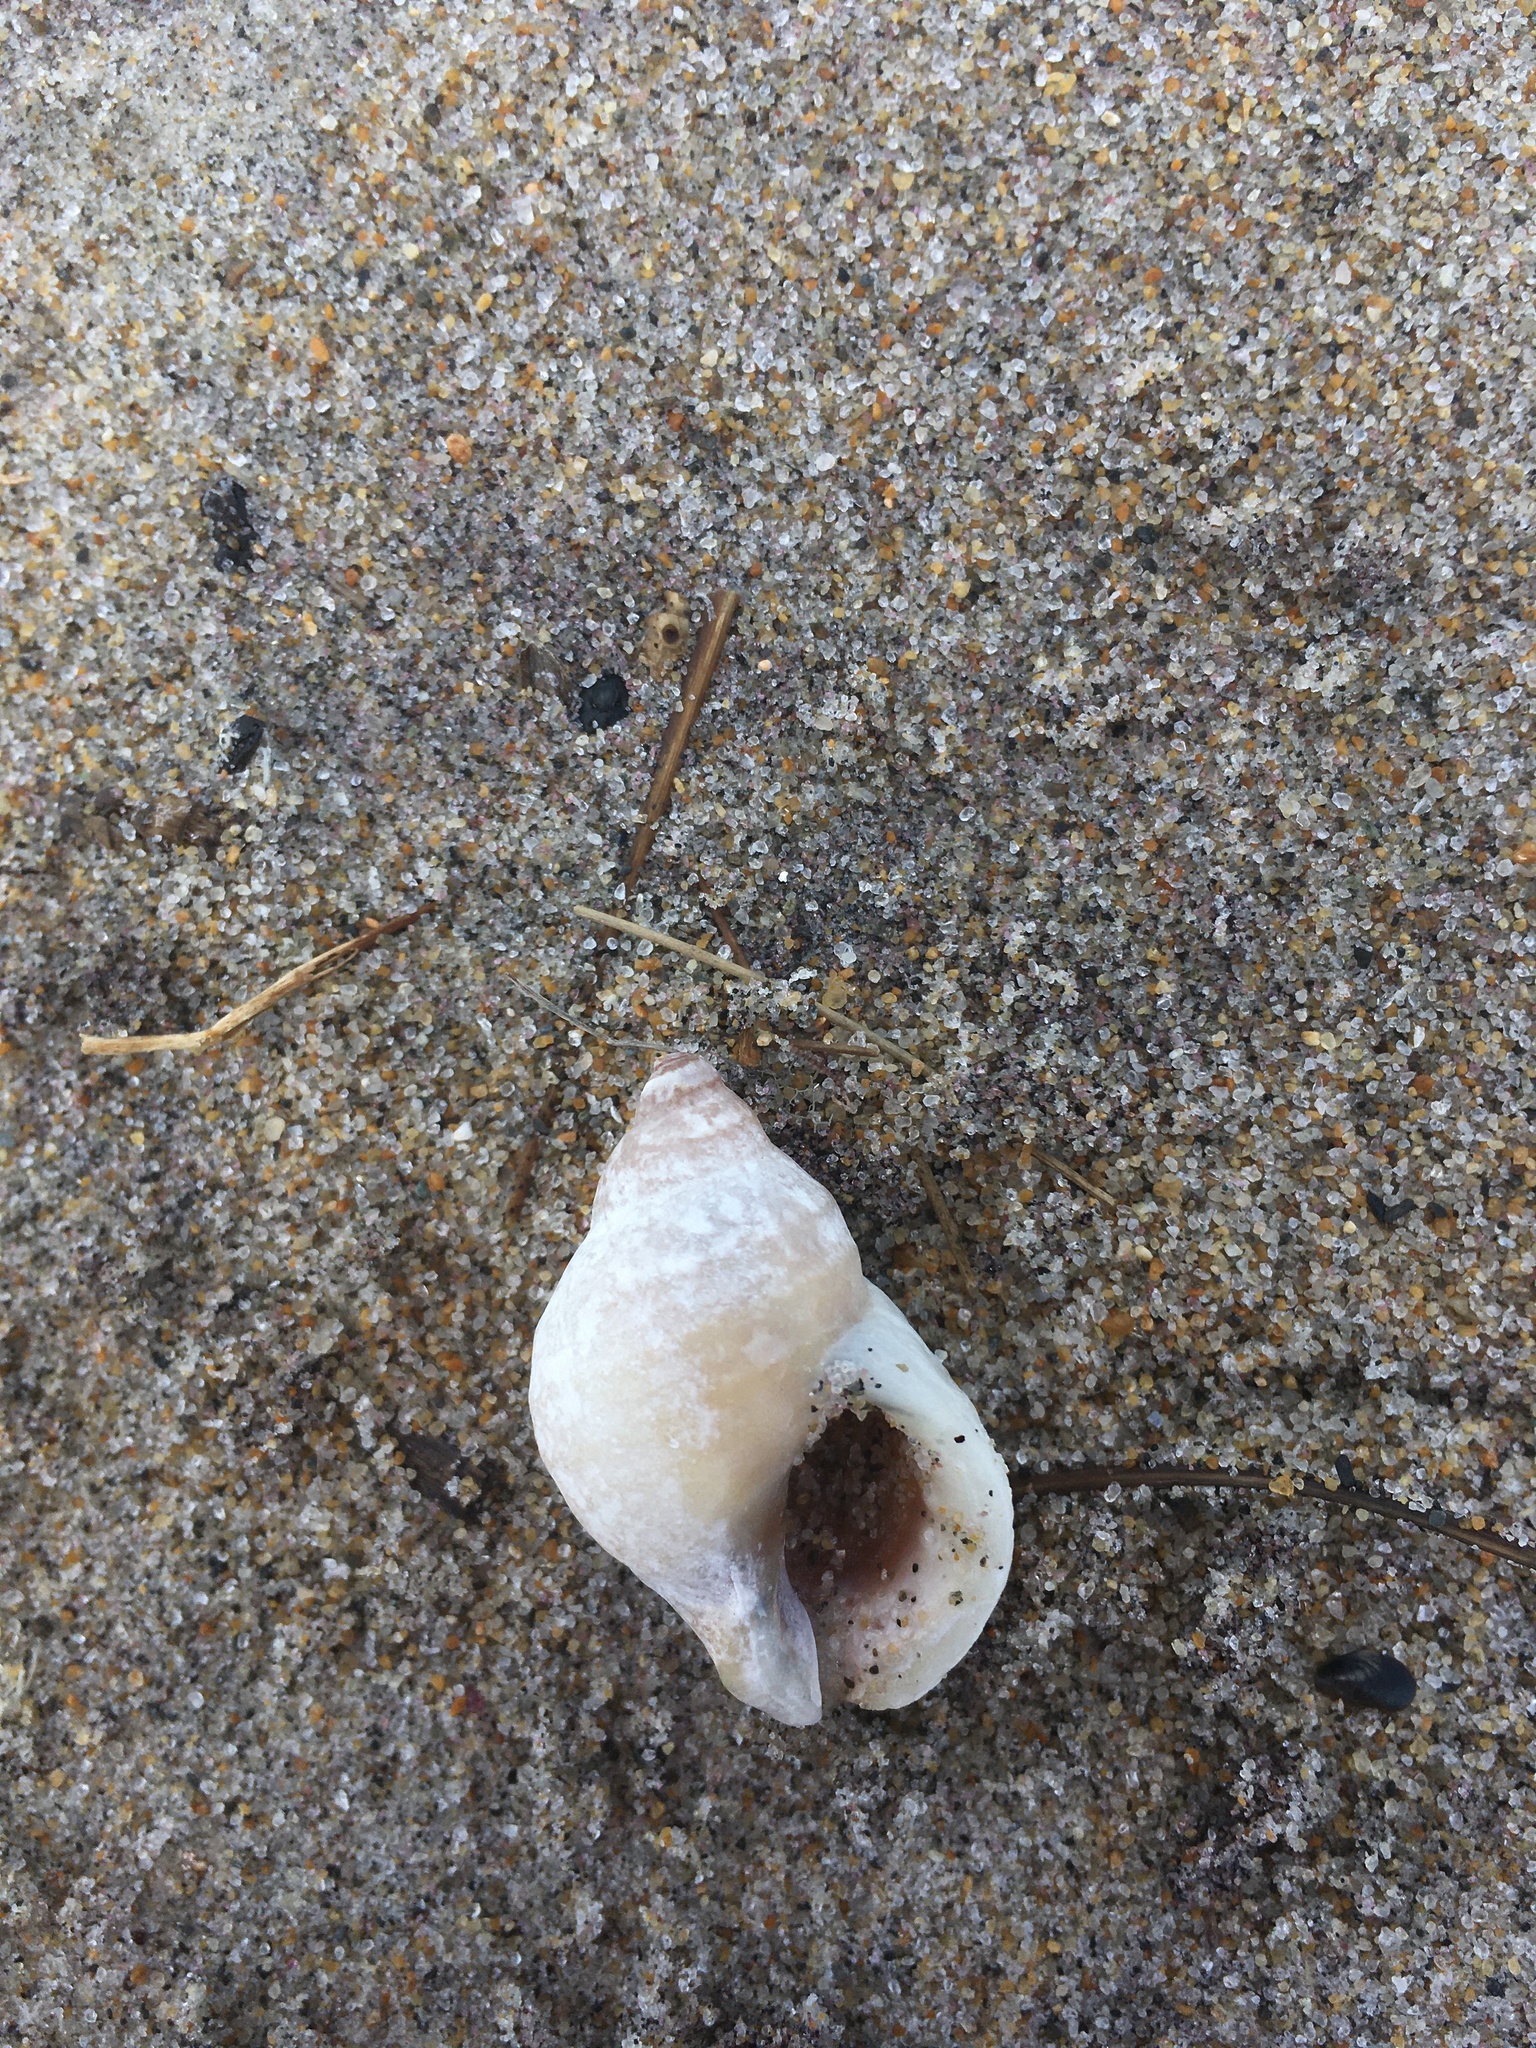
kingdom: Animalia
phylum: Mollusca
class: Gastropoda
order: Neogastropoda
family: Muricidae
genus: Nucella
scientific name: Nucella lapillus
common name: Dog whelk
